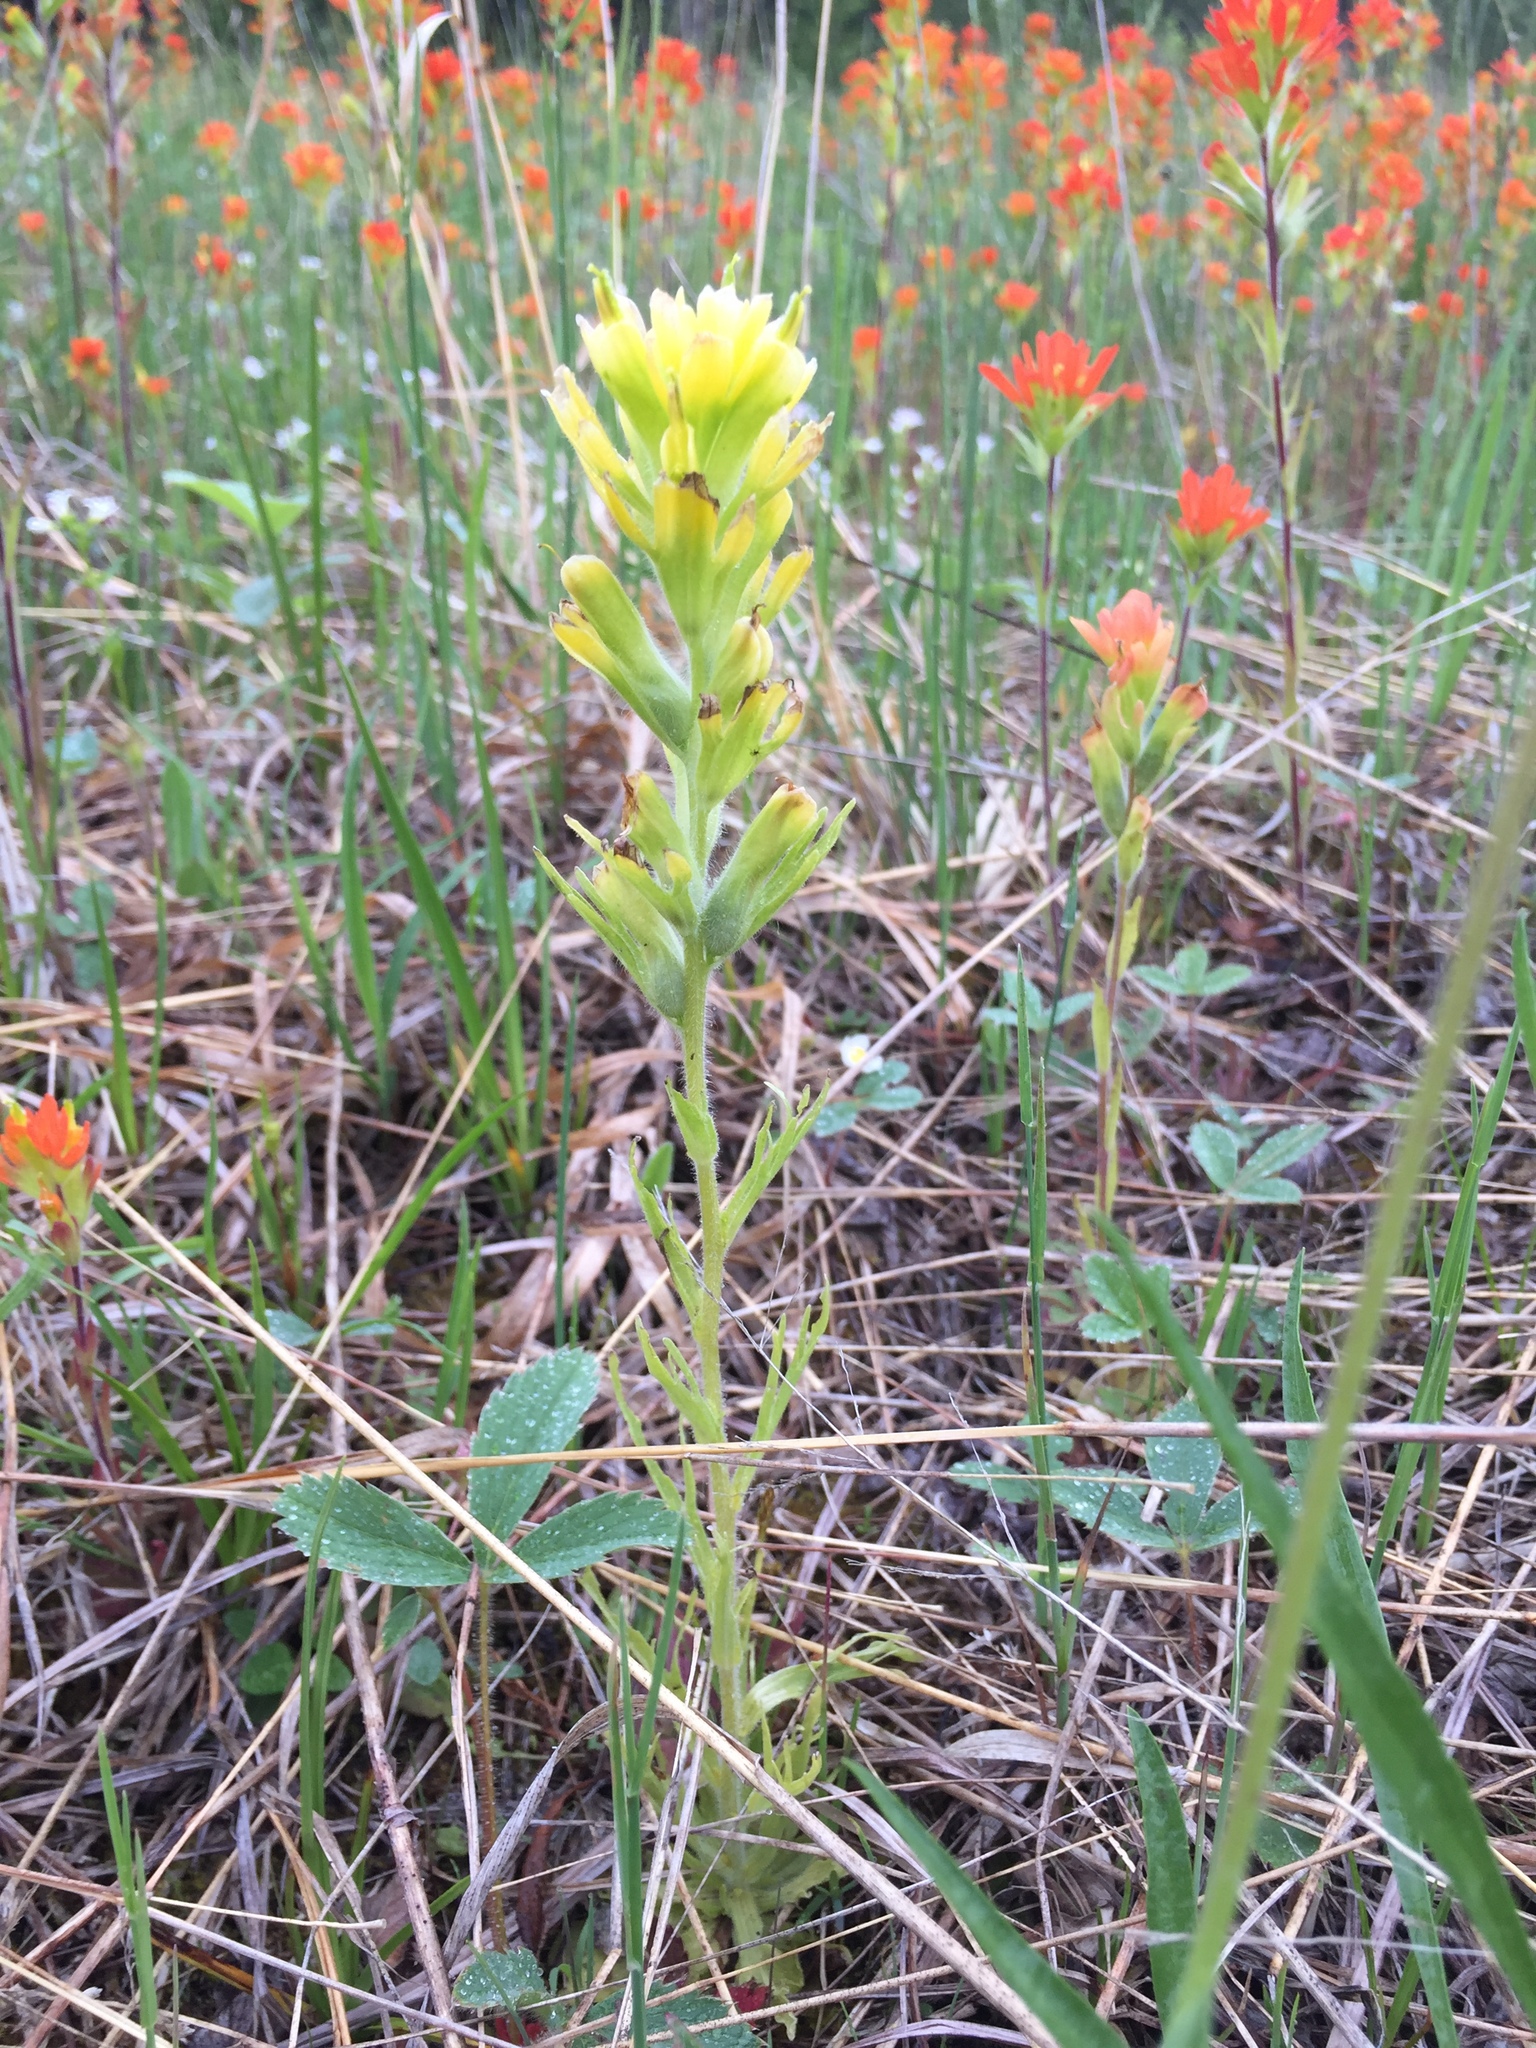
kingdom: Plantae
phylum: Tracheophyta
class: Magnoliopsida
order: Lamiales
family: Orobanchaceae
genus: Castilleja
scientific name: Castilleja coccinea
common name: Scarlet paintbrush
